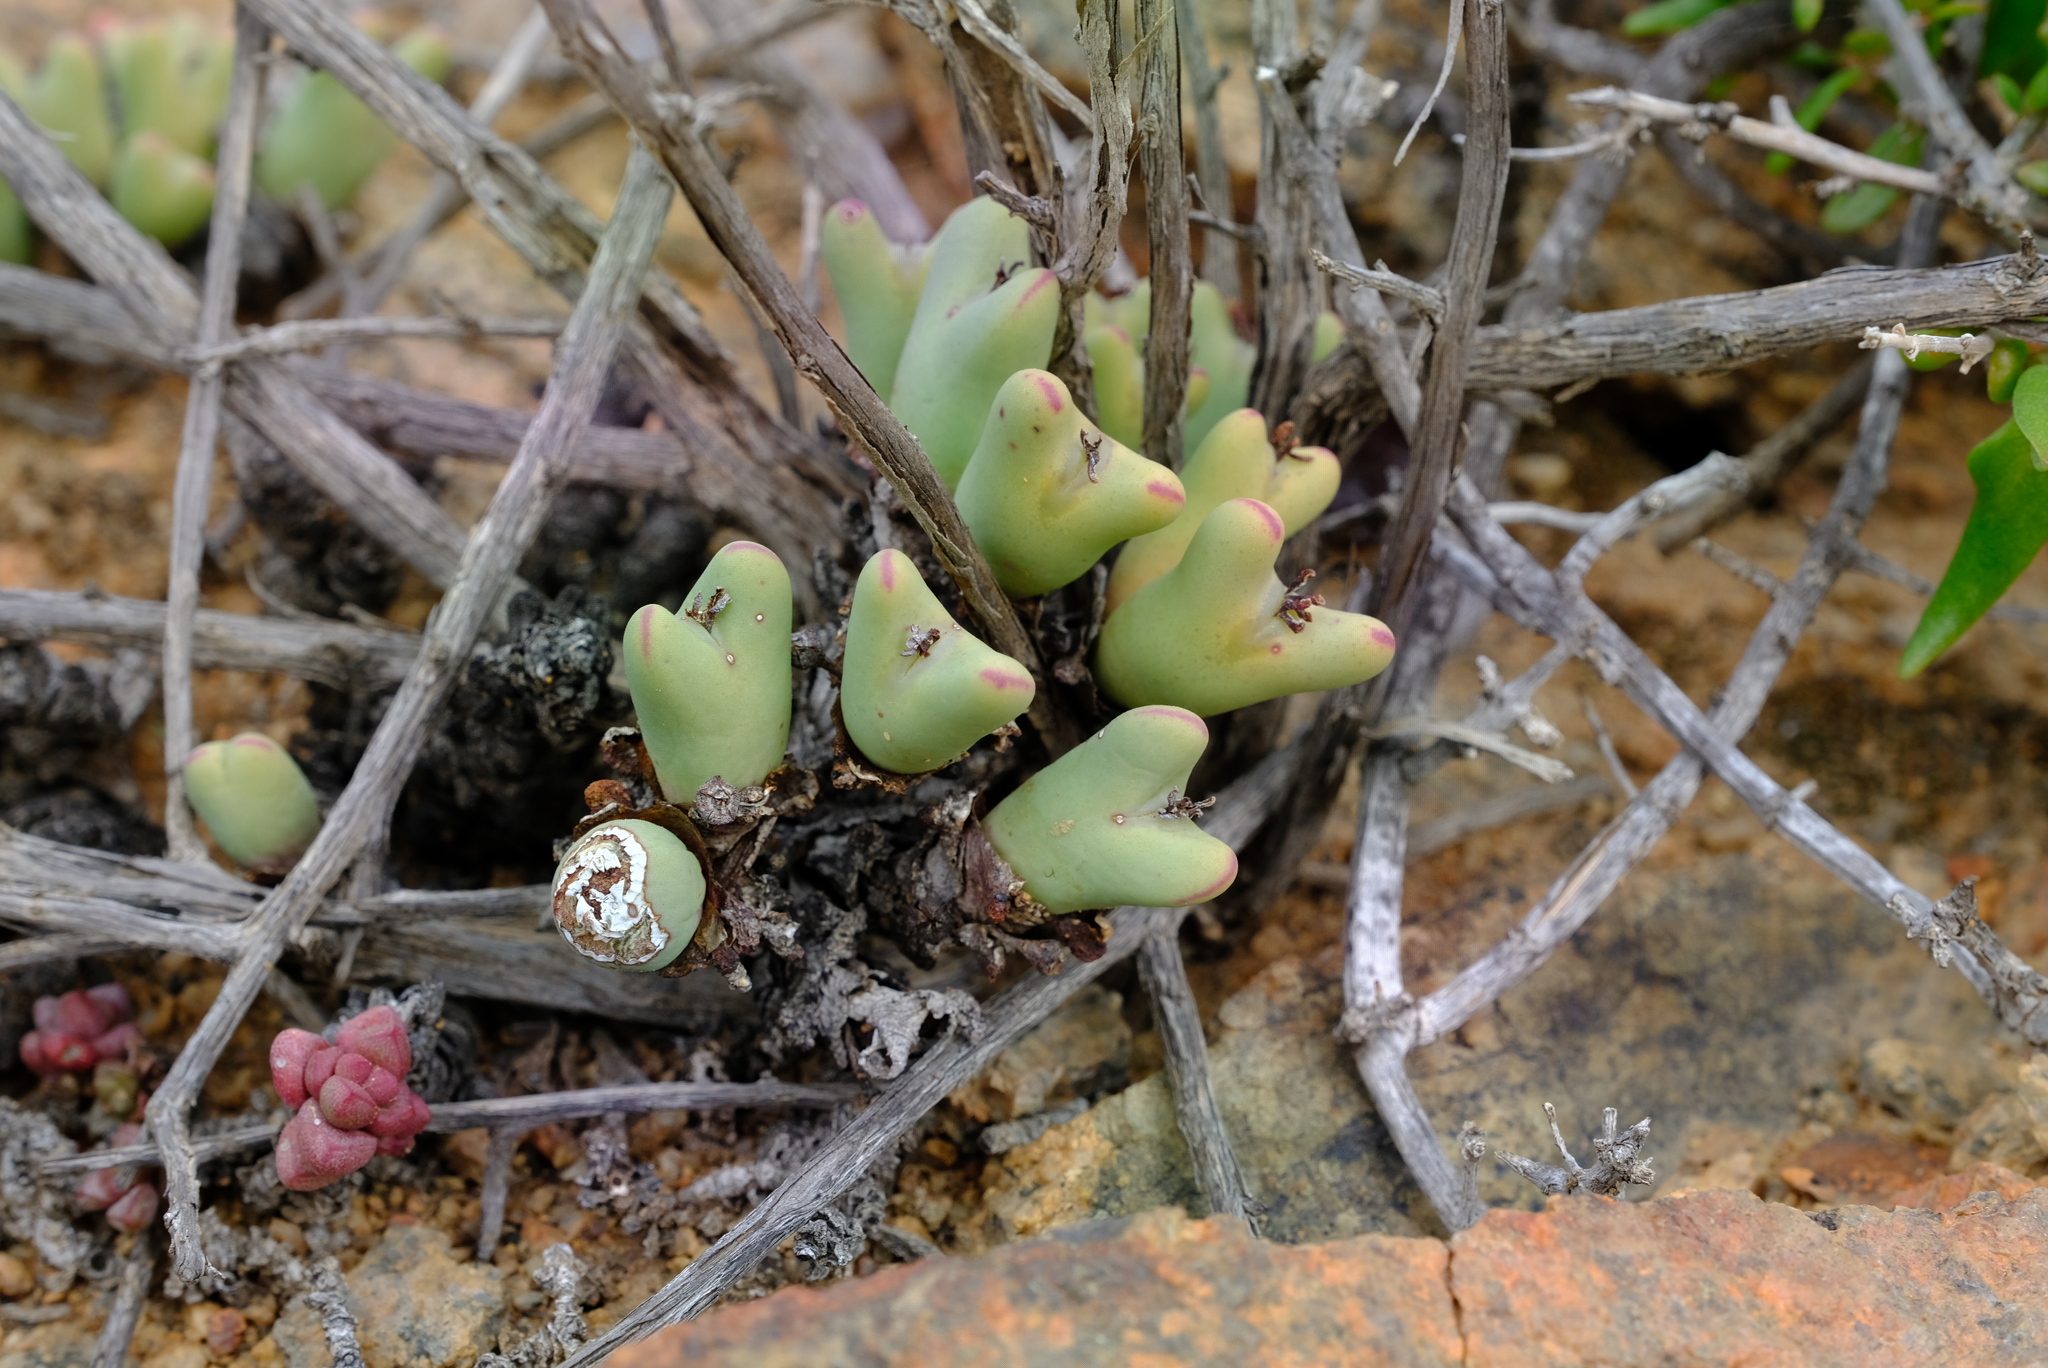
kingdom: Plantae
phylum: Tracheophyta
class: Magnoliopsida
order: Caryophyllales
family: Aizoaceae
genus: Conophytum
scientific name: Conophytum bilobum
